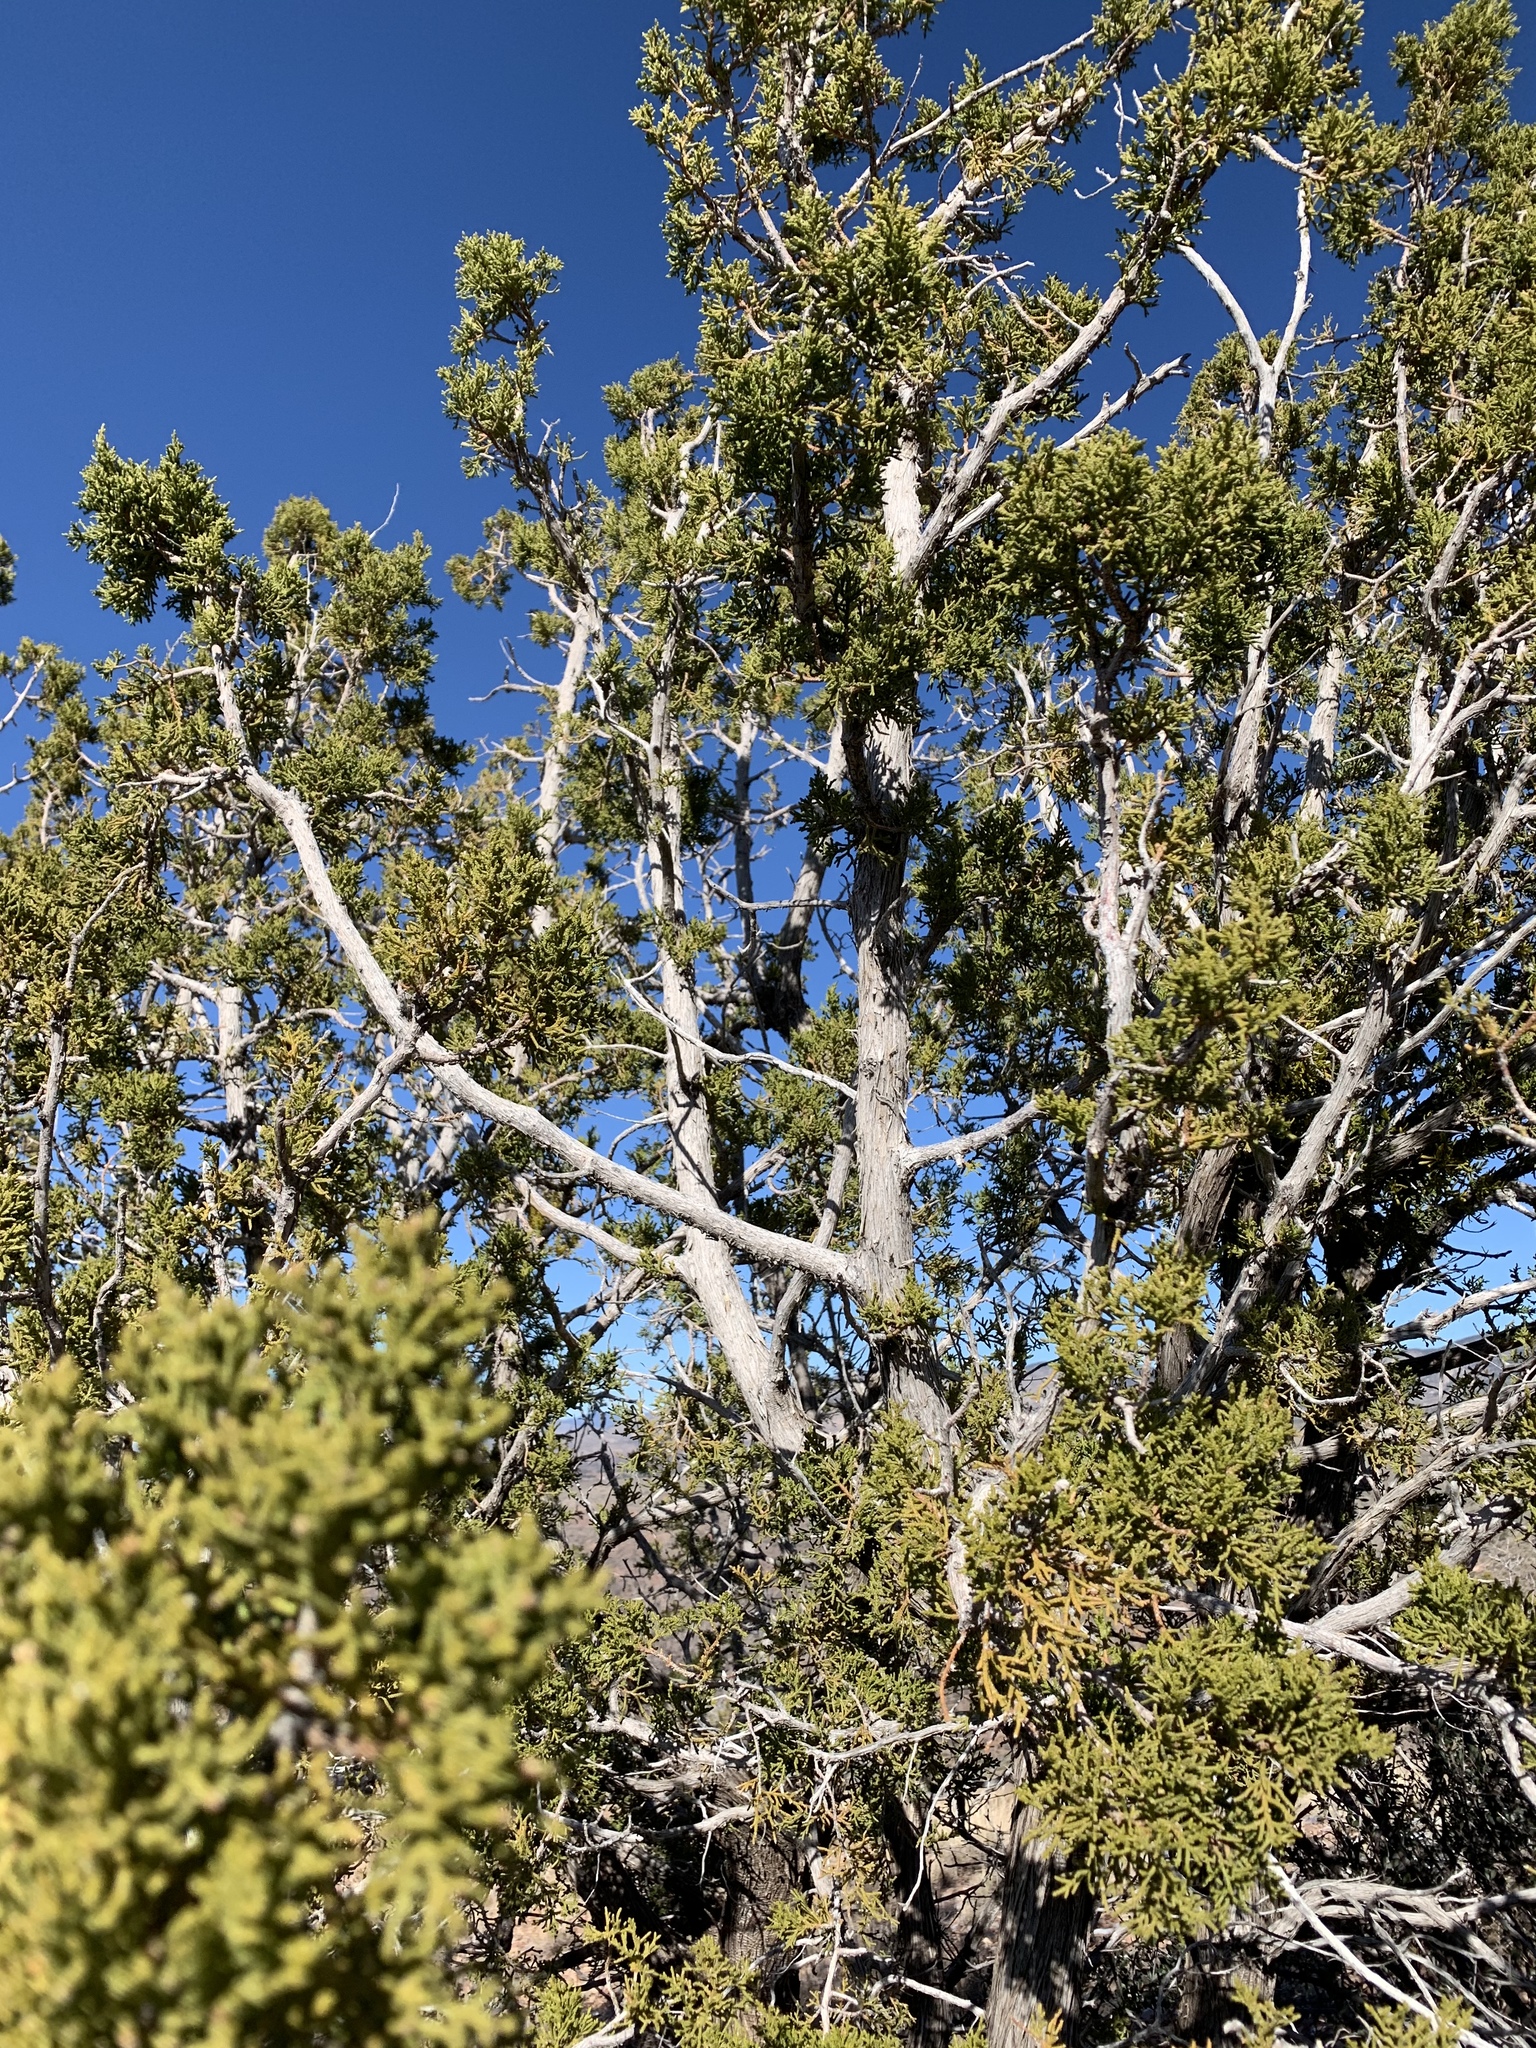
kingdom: Plantae
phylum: Tracheophyta
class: Pinopsida
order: Pinales
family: Cupressaceae
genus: Juniperus
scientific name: Juniperus monosperma
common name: One-seed juniper
